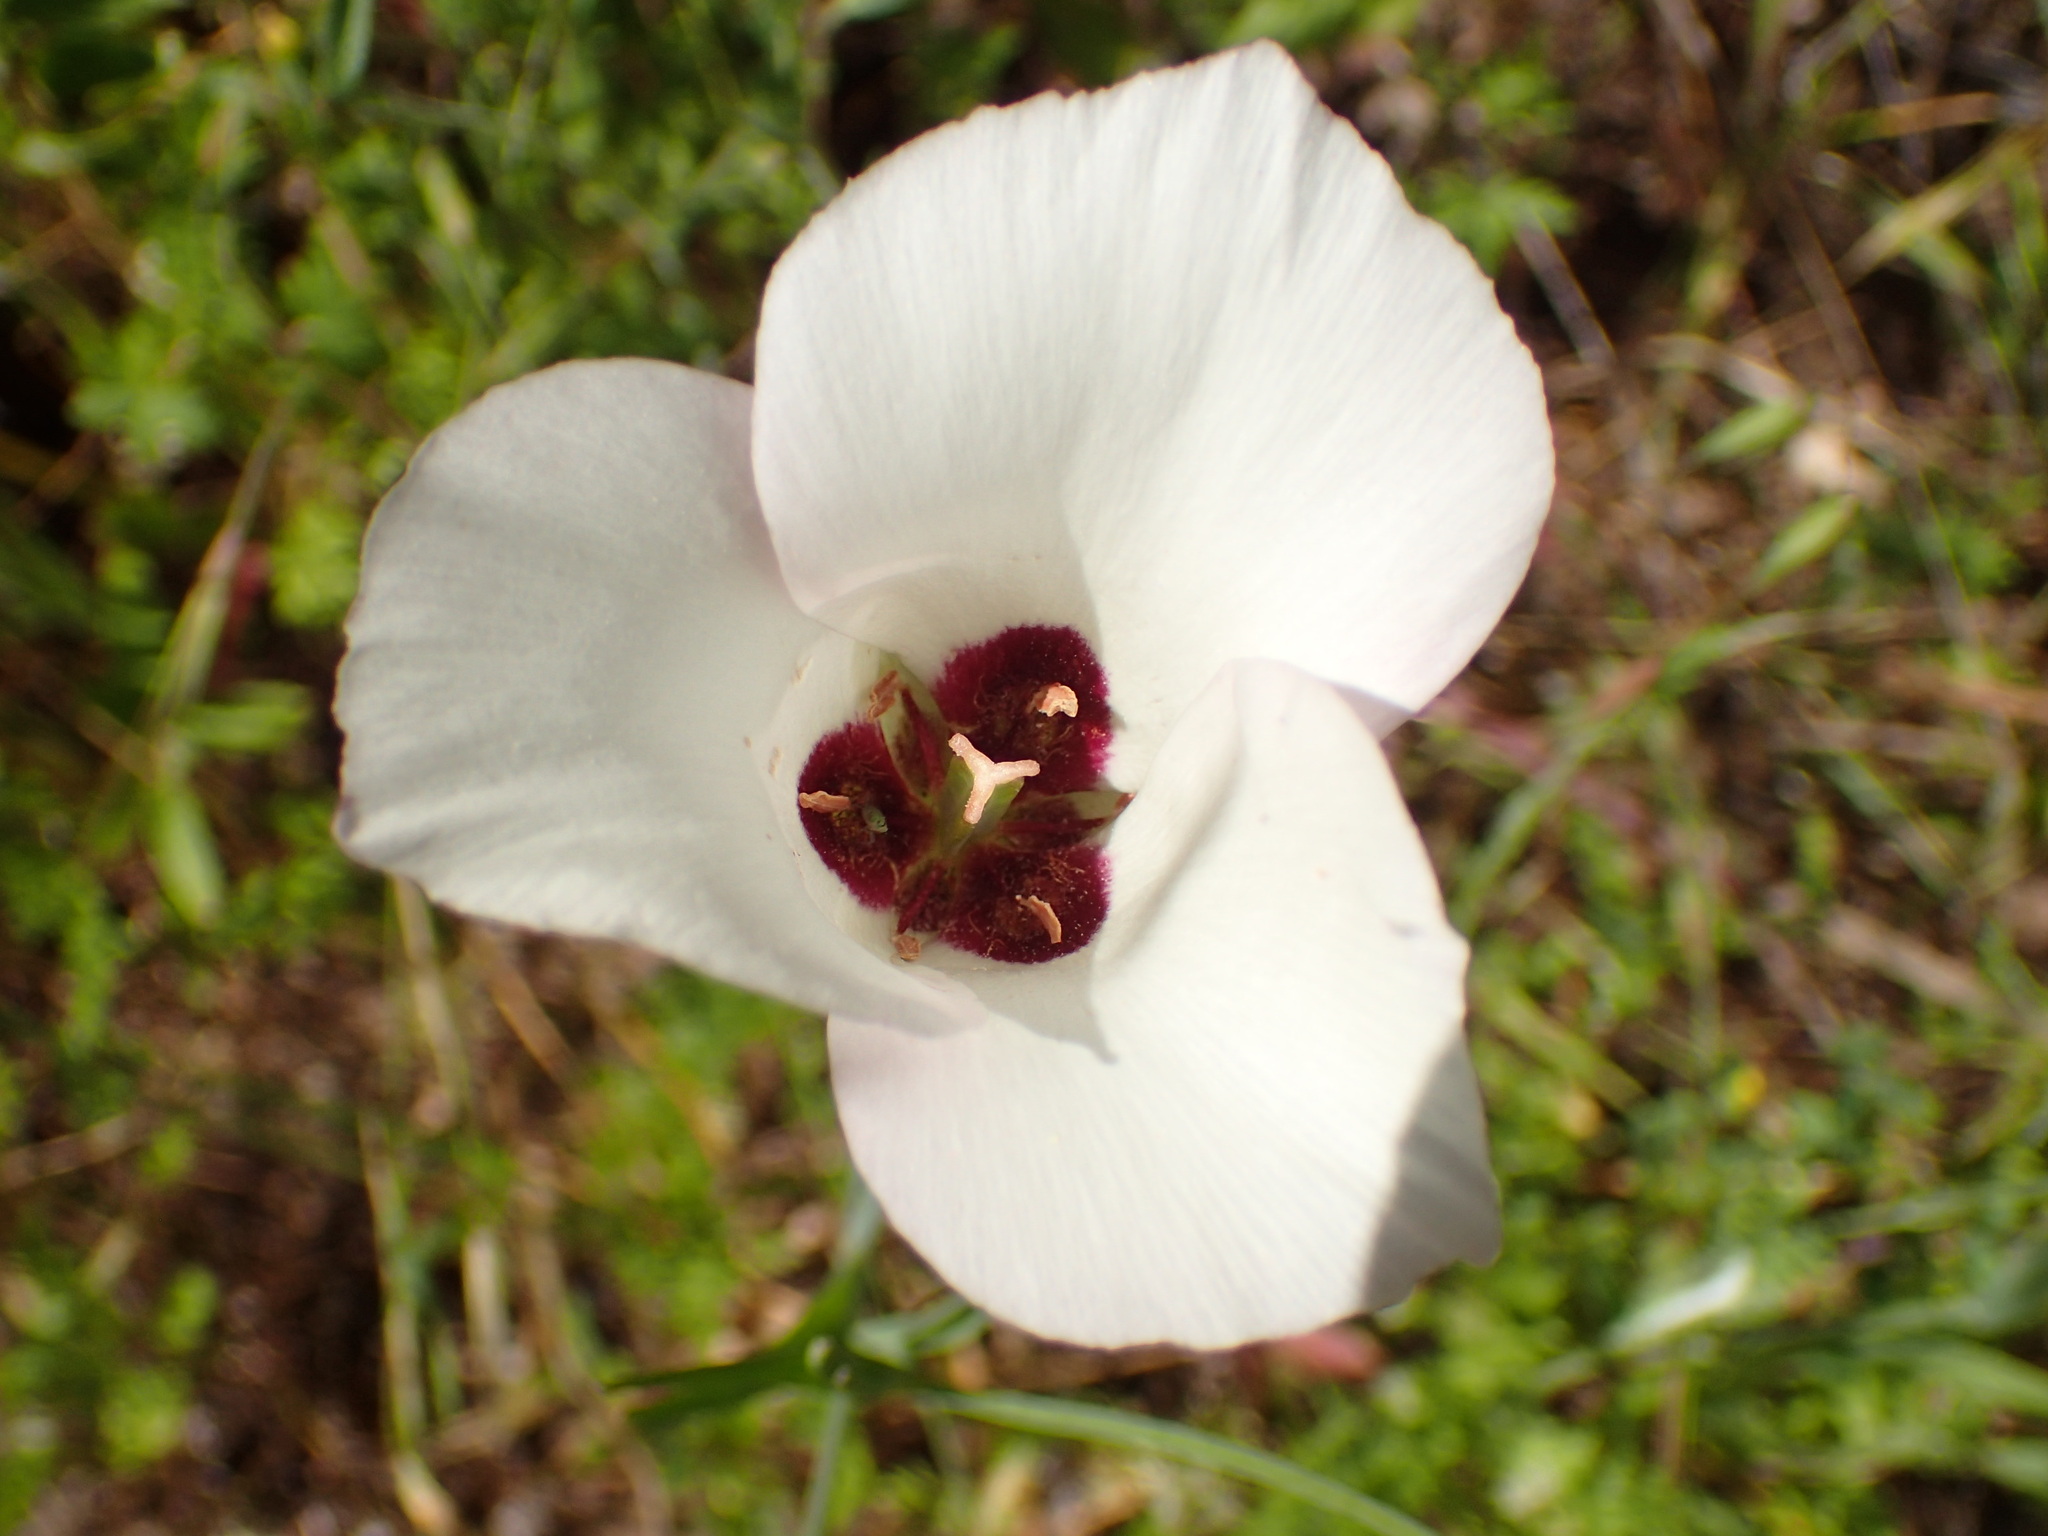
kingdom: Plantae
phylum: Tracheophyta
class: Liliopsida
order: Liliales
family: Liliaceae
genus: Calochortus
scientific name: Calochortus catalinae
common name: Catalina mariposa-lily
